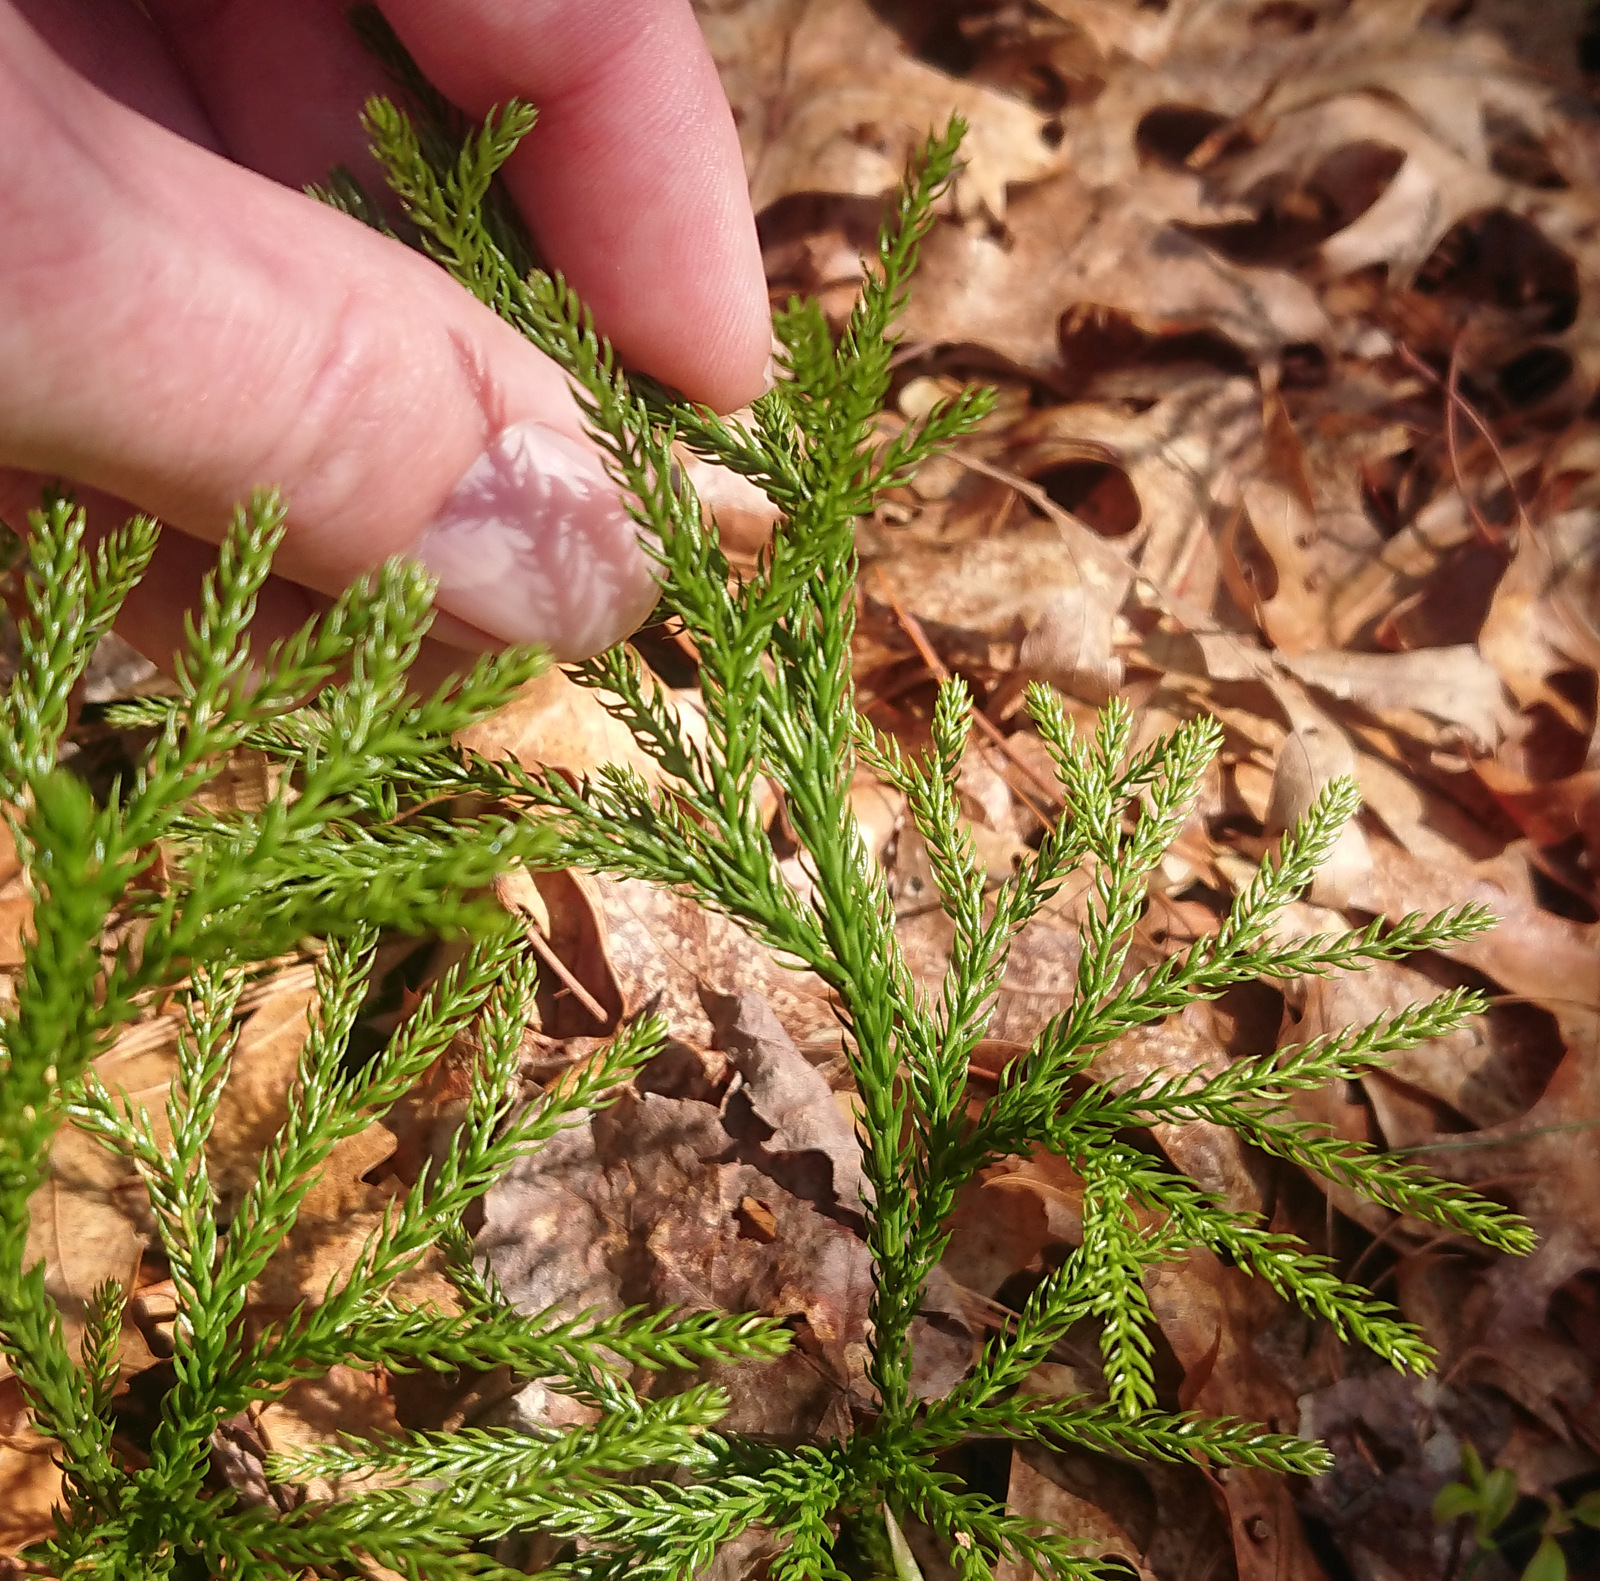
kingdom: Plantae
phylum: Tracheophyta
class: Lycopodiopsida
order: Lycopodiales
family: Lycopodiaceae
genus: Dendrolycopodium
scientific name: Dendrolycopodium hickeyi
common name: Hickey's clubmoss
